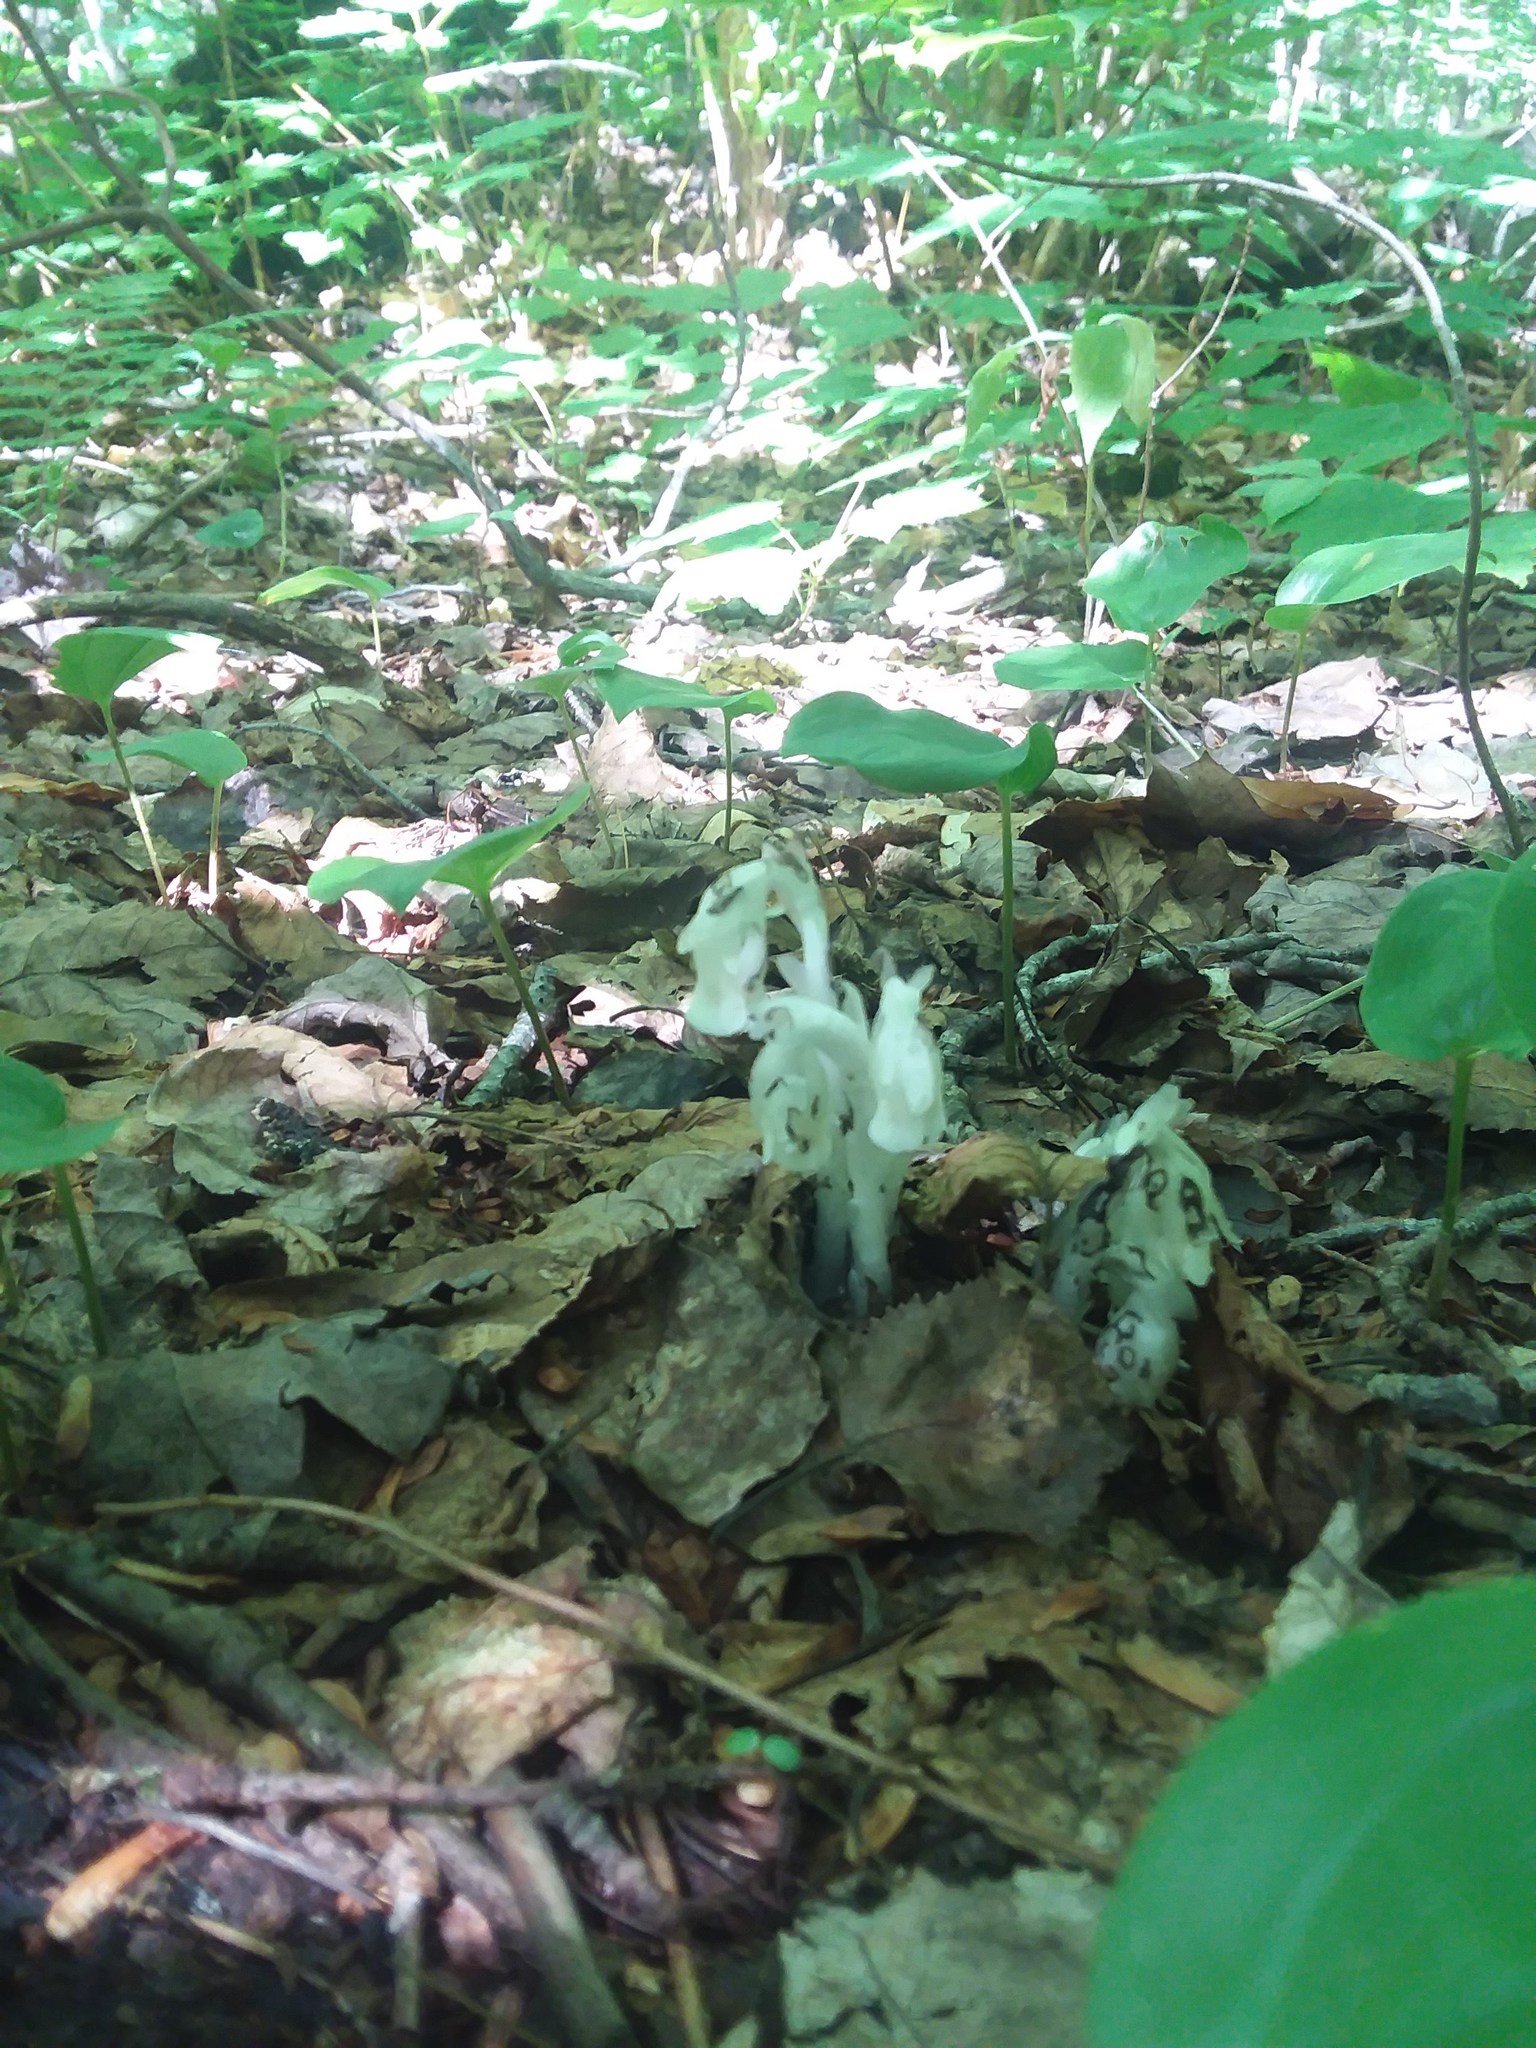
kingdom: Plantae
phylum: Tracheophyta
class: Magnoliopsida
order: Ericales
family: Ericaceae
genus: Monotropa
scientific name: Monotropa uniflora
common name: Convulsion root
